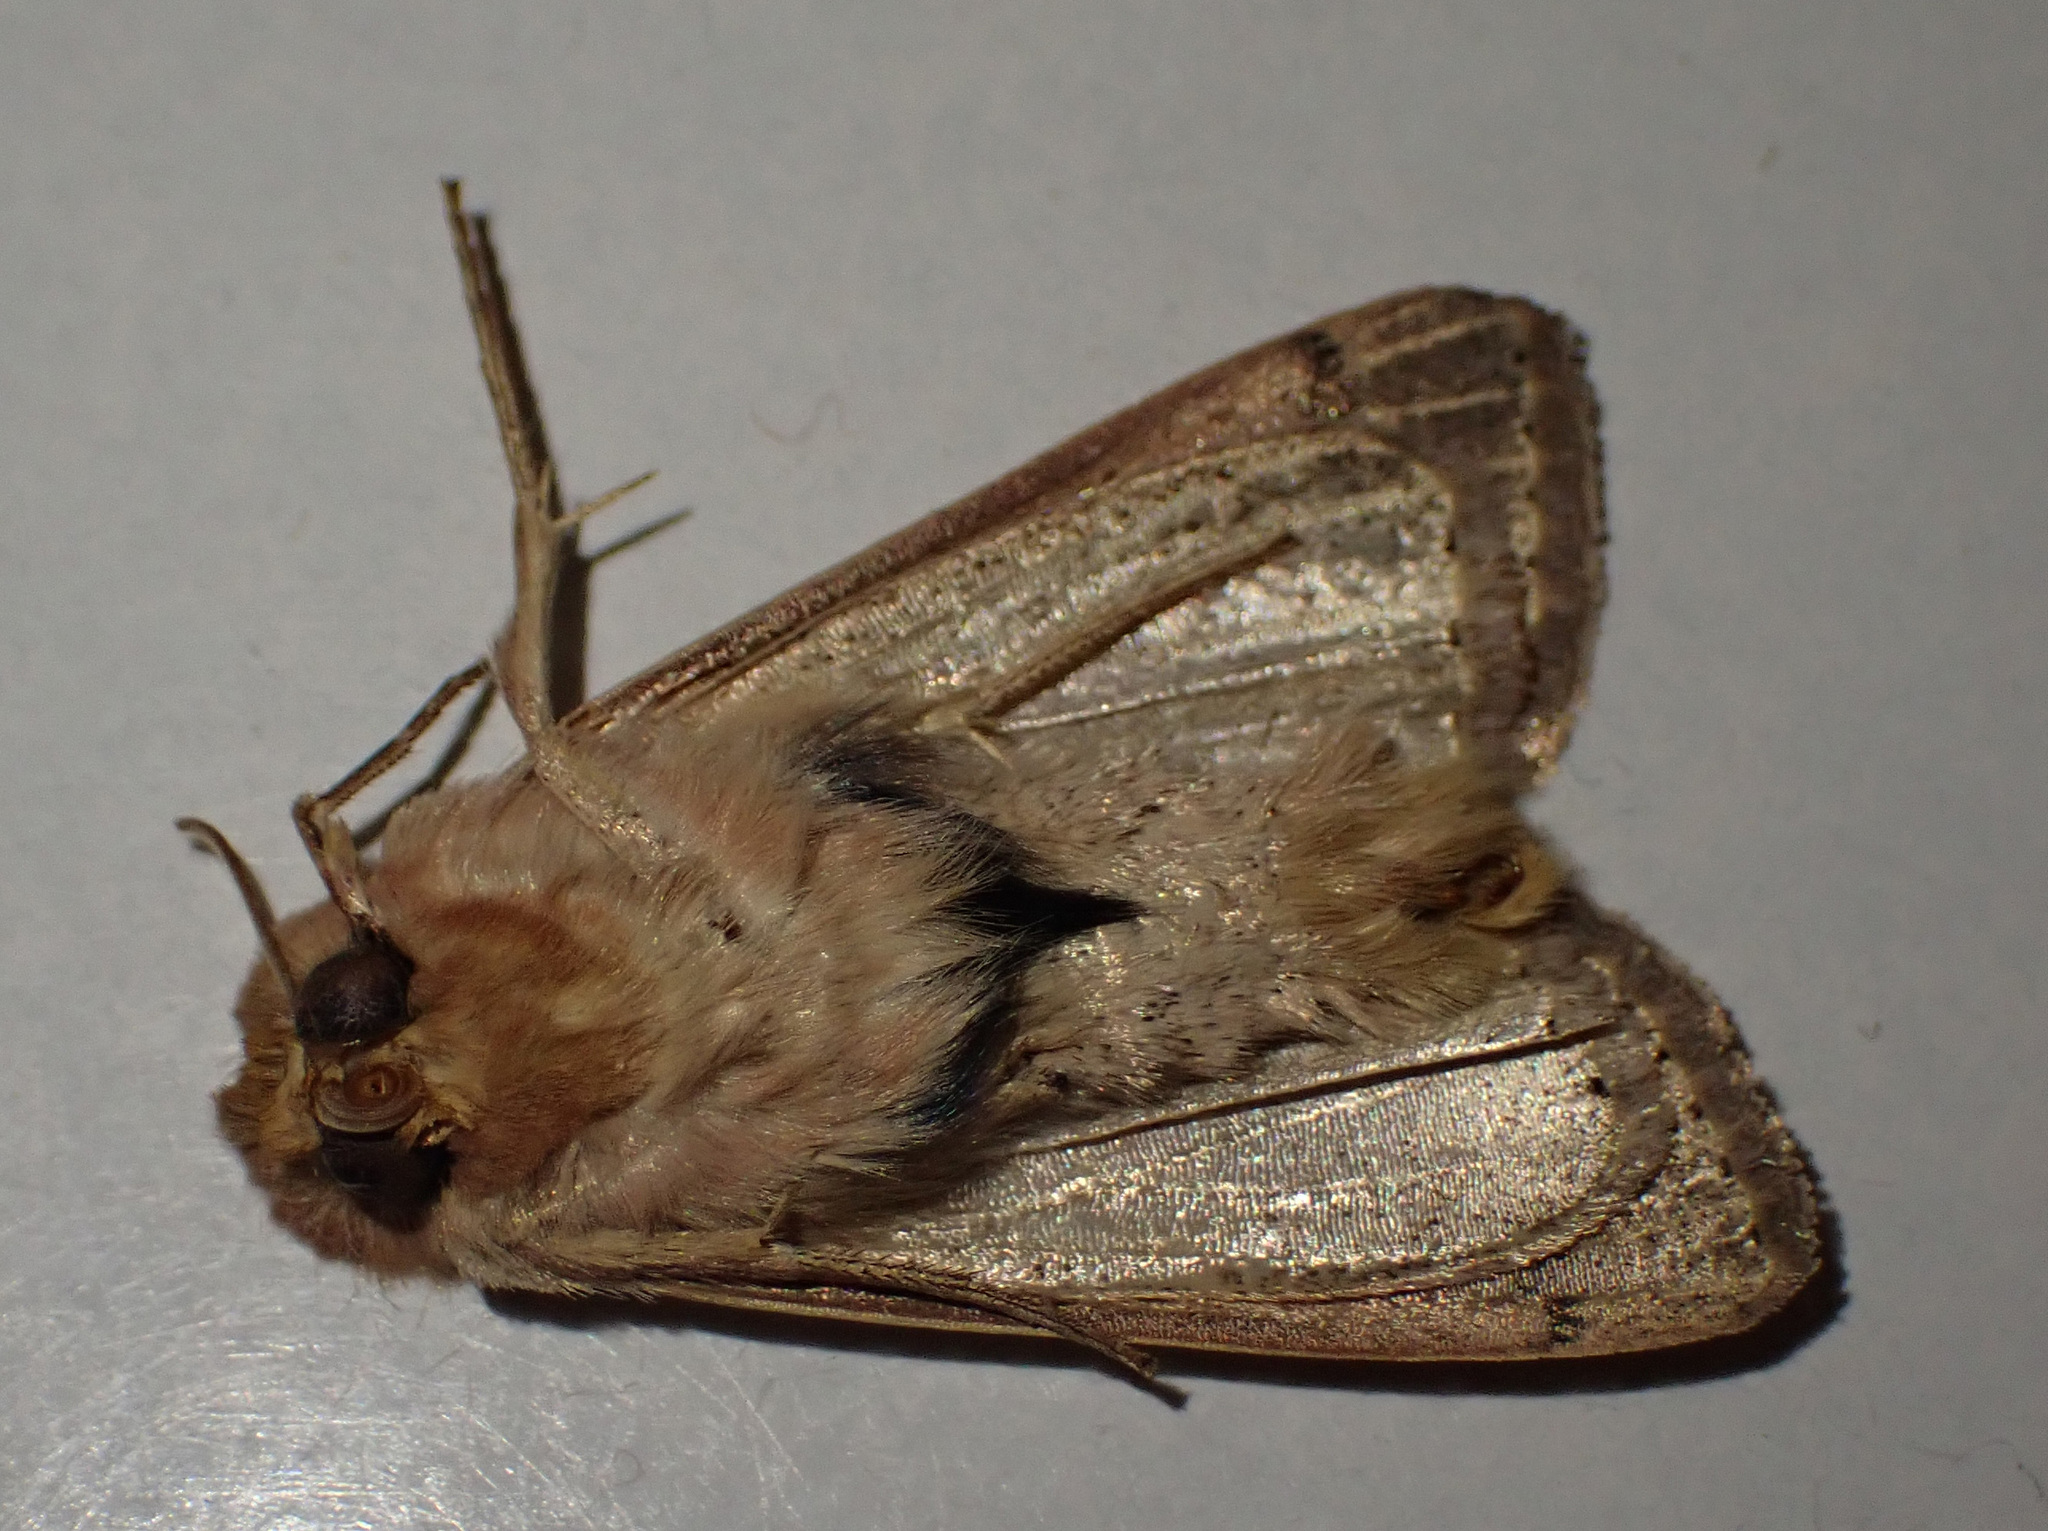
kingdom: Animalia
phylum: Arthropoda
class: Insecta
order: Lepidoptera
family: Noctuidae
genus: Mythimna
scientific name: Mythimna ferrago
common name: Clay
